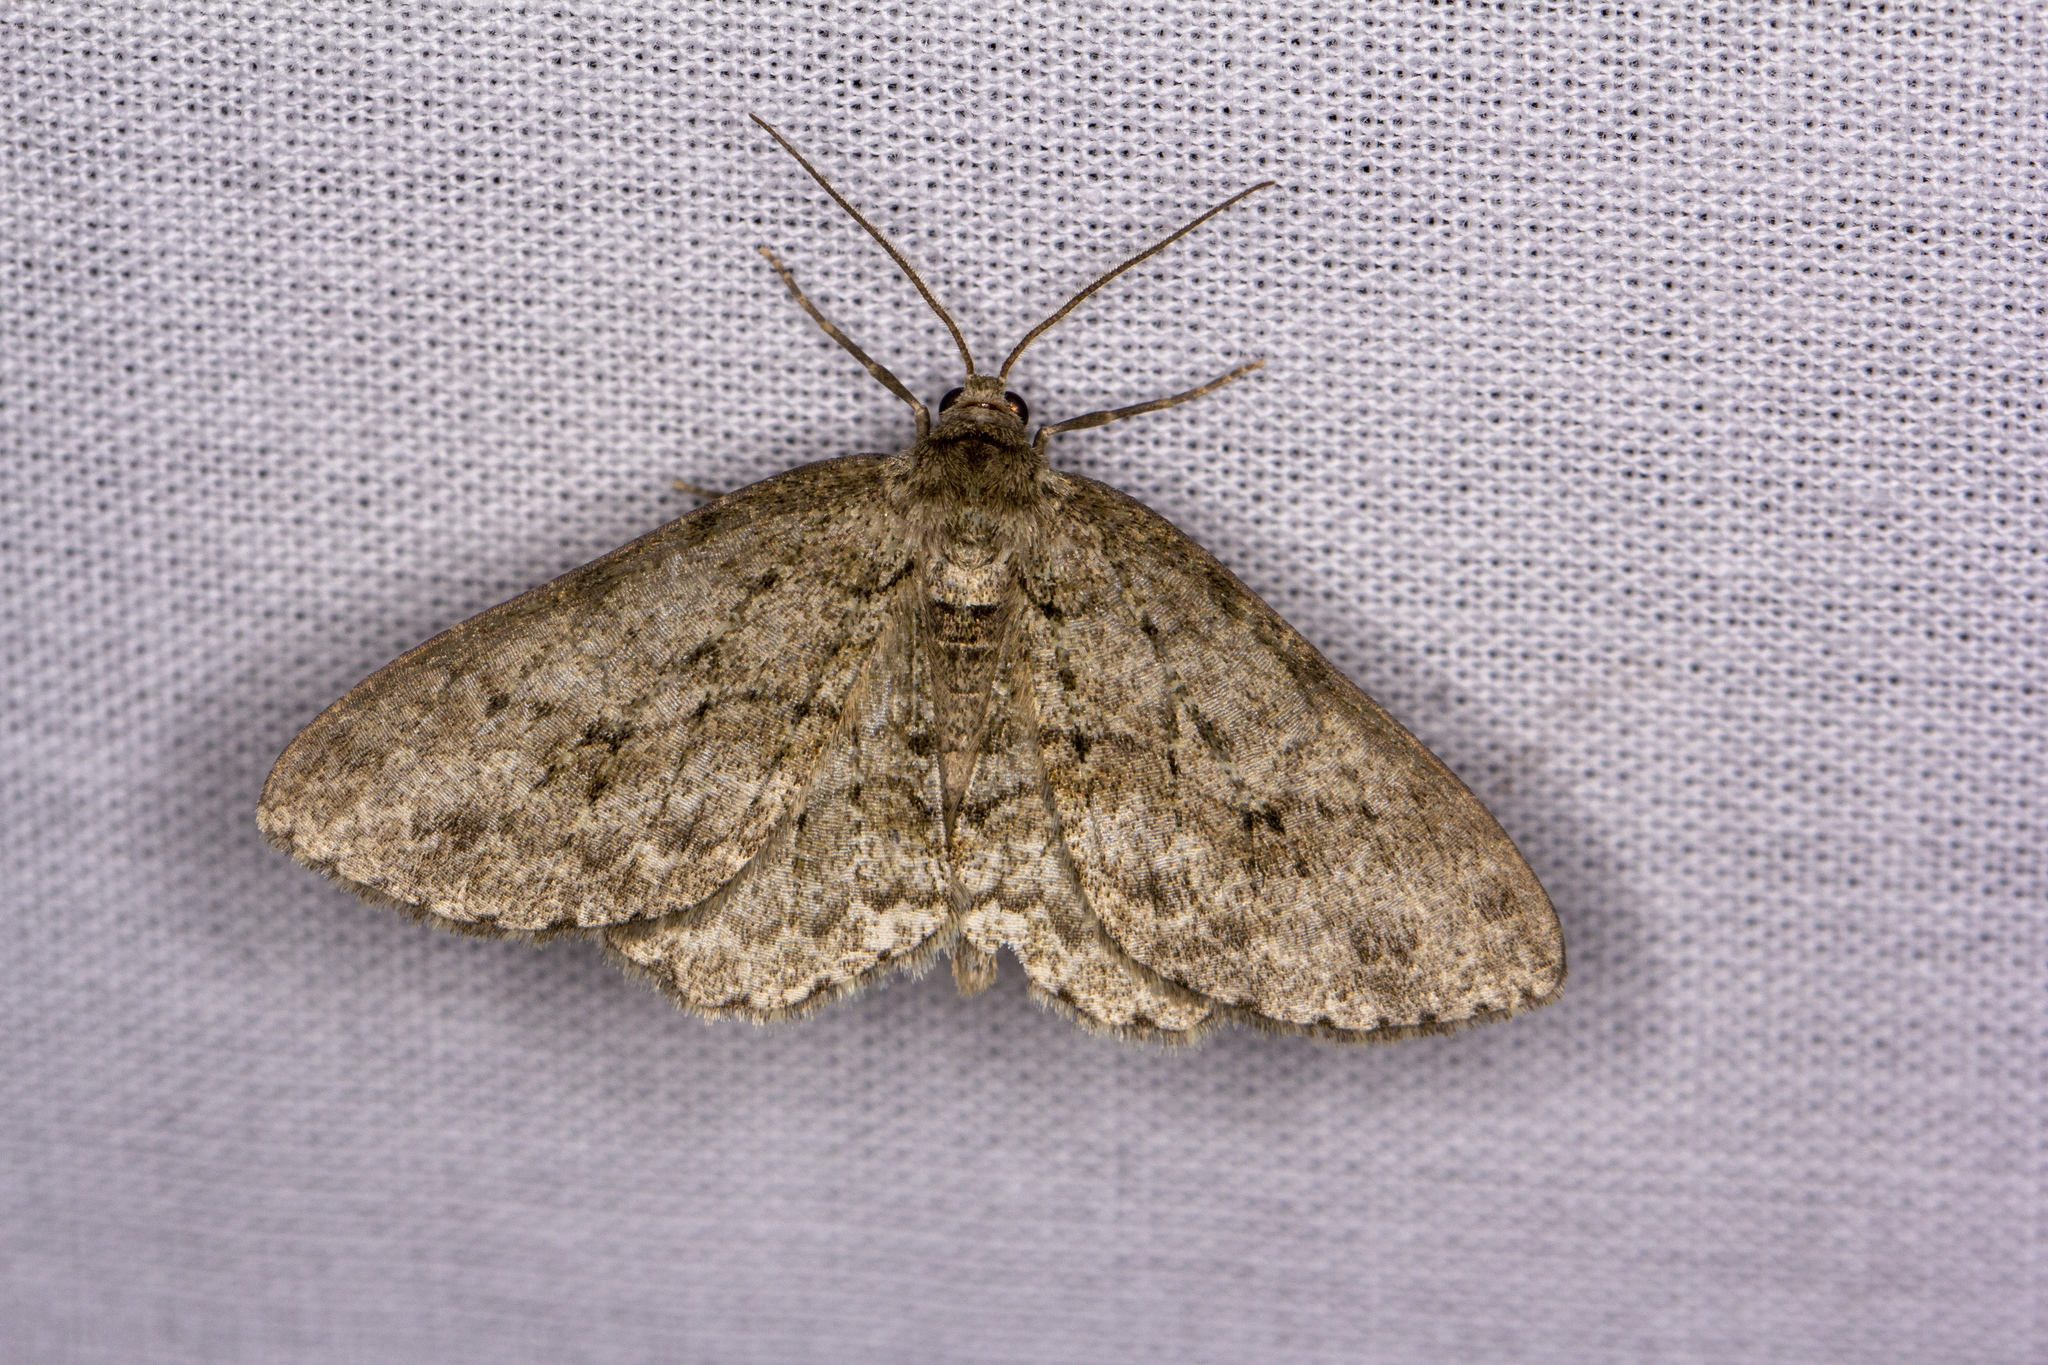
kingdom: Animalia
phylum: Arthropoda
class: Insecta
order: Lepidoptera
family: Geometridae
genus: Ectropis
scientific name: Ectropis crepuscularia
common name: Engrailed
